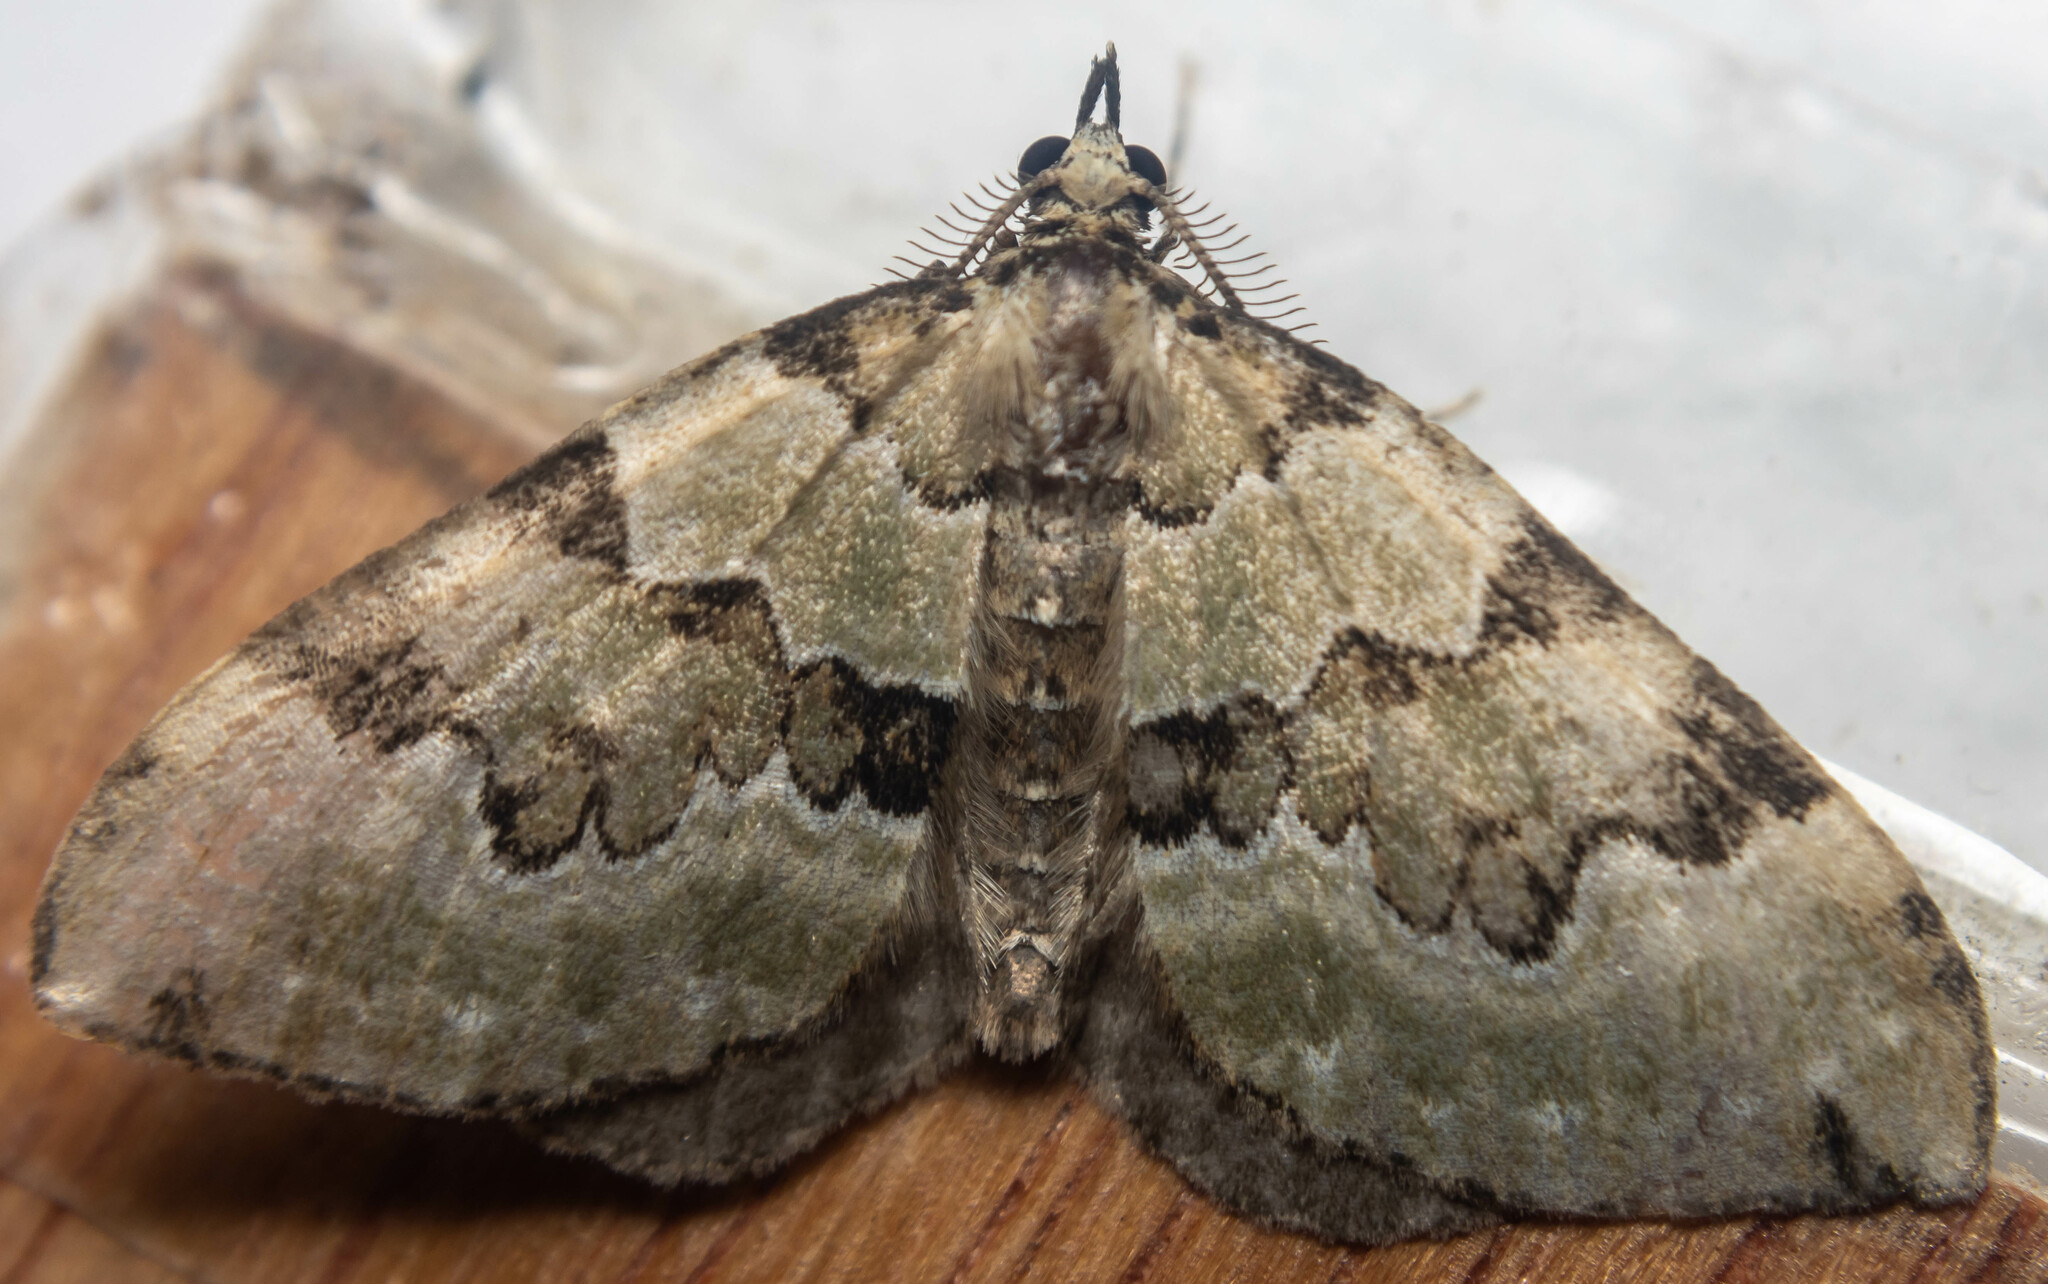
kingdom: Animalia
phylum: Arthropoda
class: Insecta
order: Lepidoptera
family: Geometridae
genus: Colostygia
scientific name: Colostygia pectinataria
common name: Green carpet
